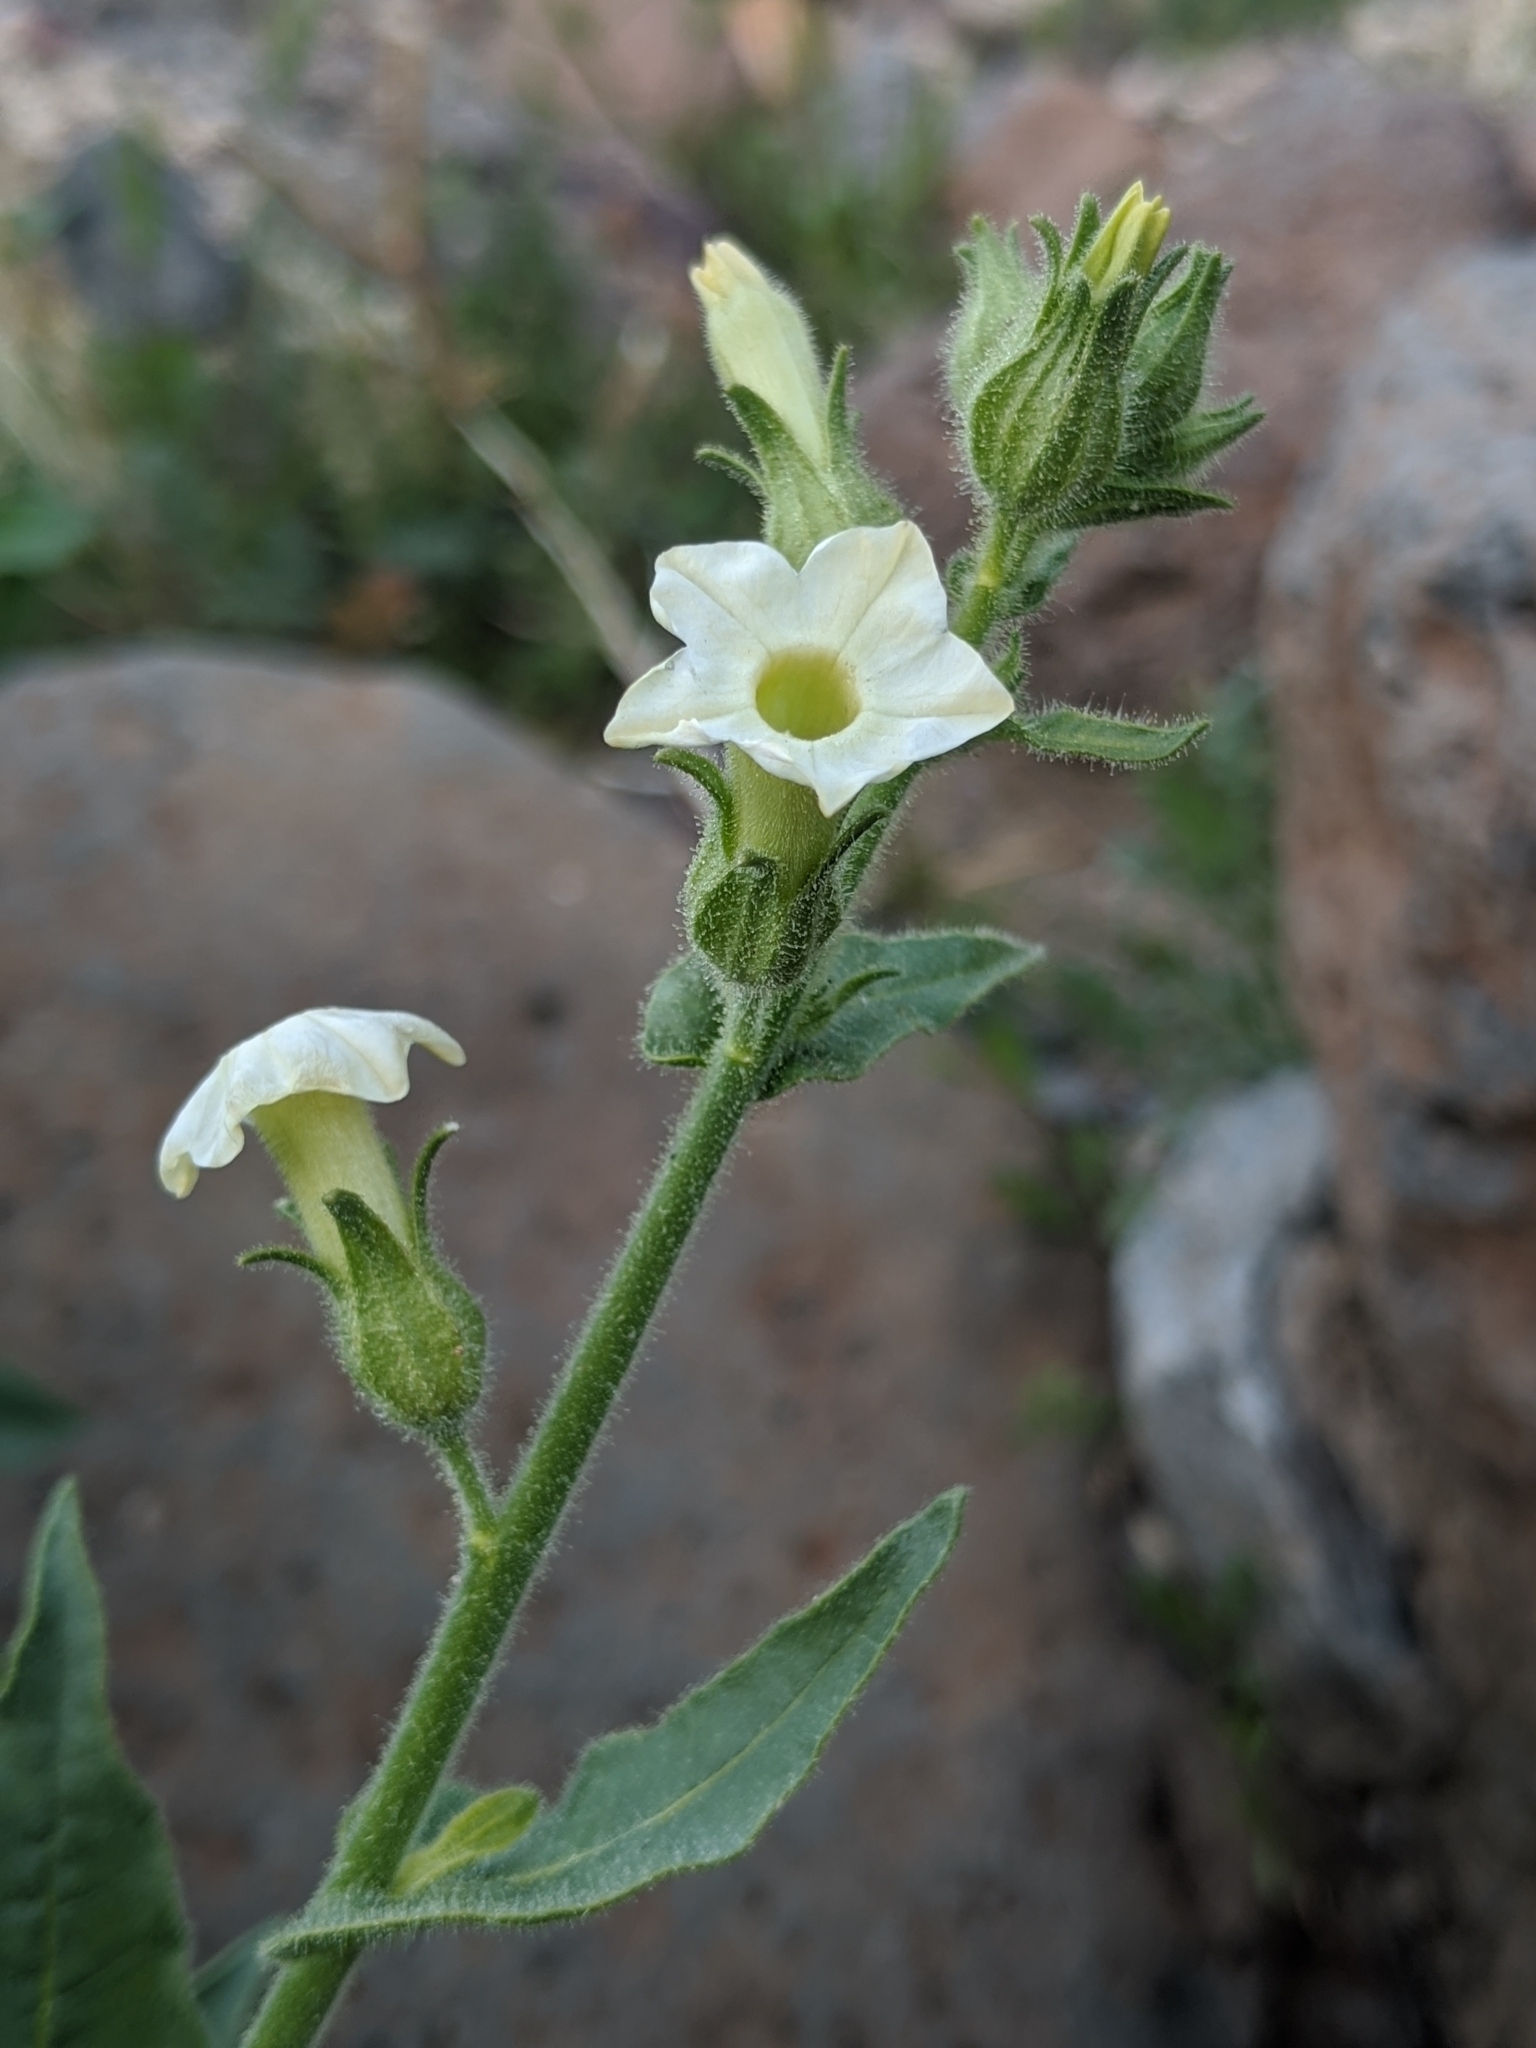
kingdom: Plantae
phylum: Tracheophyta
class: Magnoliopsida
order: Solanales
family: Solanaceae
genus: Nicotiana
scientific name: Nicotiana obtusifolia
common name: Desert tobacco
